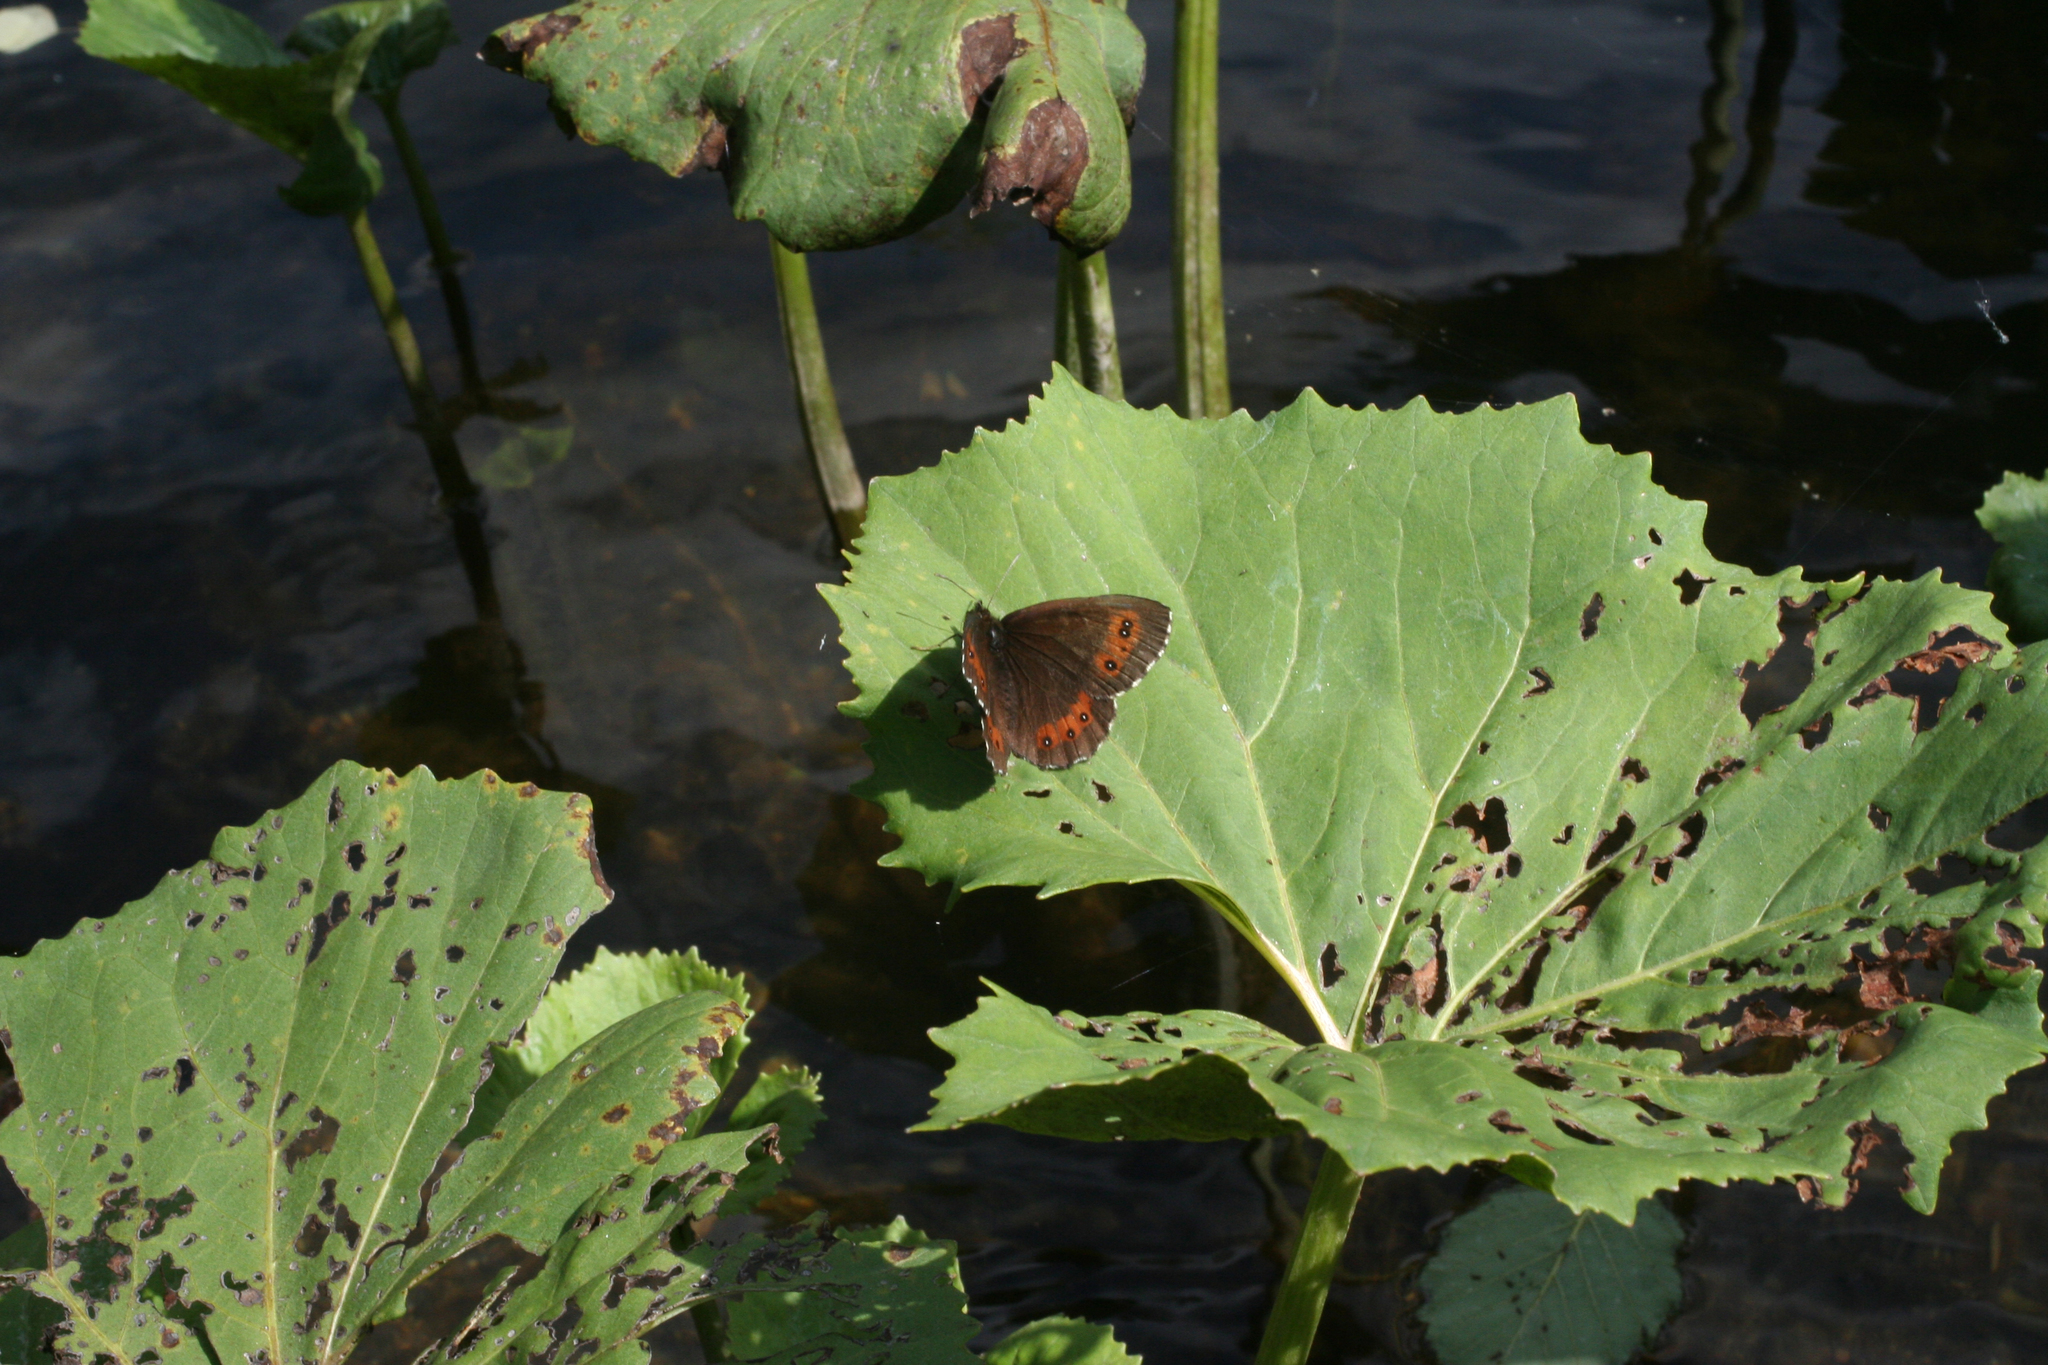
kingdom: Plantae
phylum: Tracheophyta
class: Magnoliopsida
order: Asterales
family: Asteraceae
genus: Petasites
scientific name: Petasites radiatus
